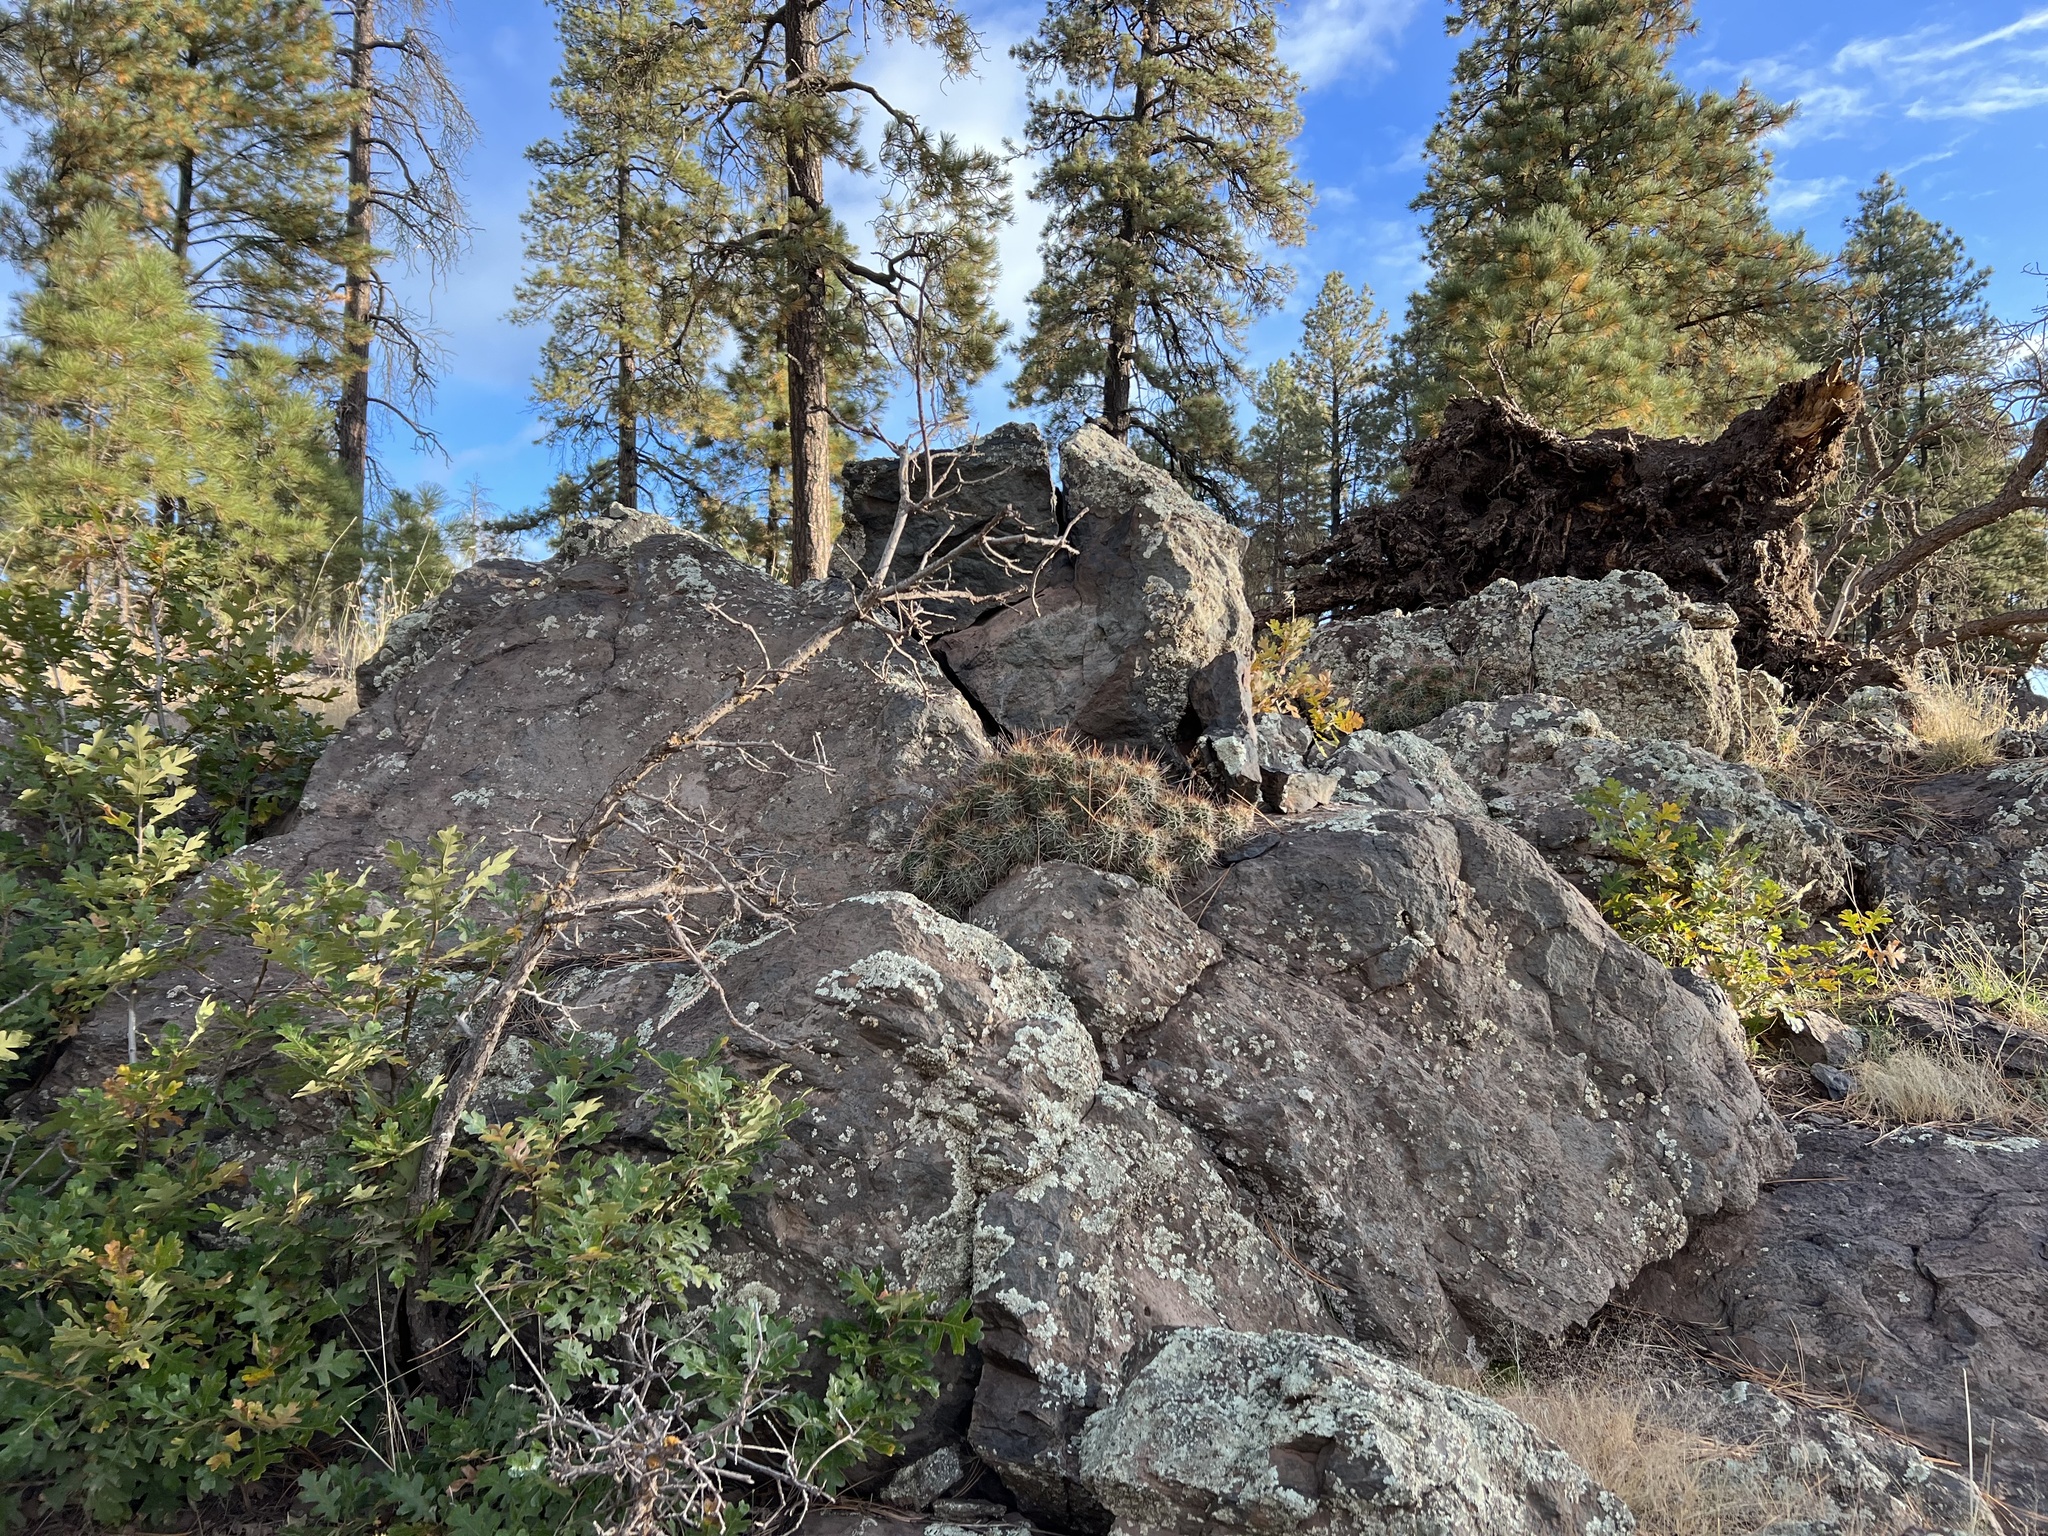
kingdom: Plantae
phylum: Tracheophyta
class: Magnoliopsida
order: Caryophyllales
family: Cactaceae
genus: Echinocereus
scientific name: Echinocereus bakeri
